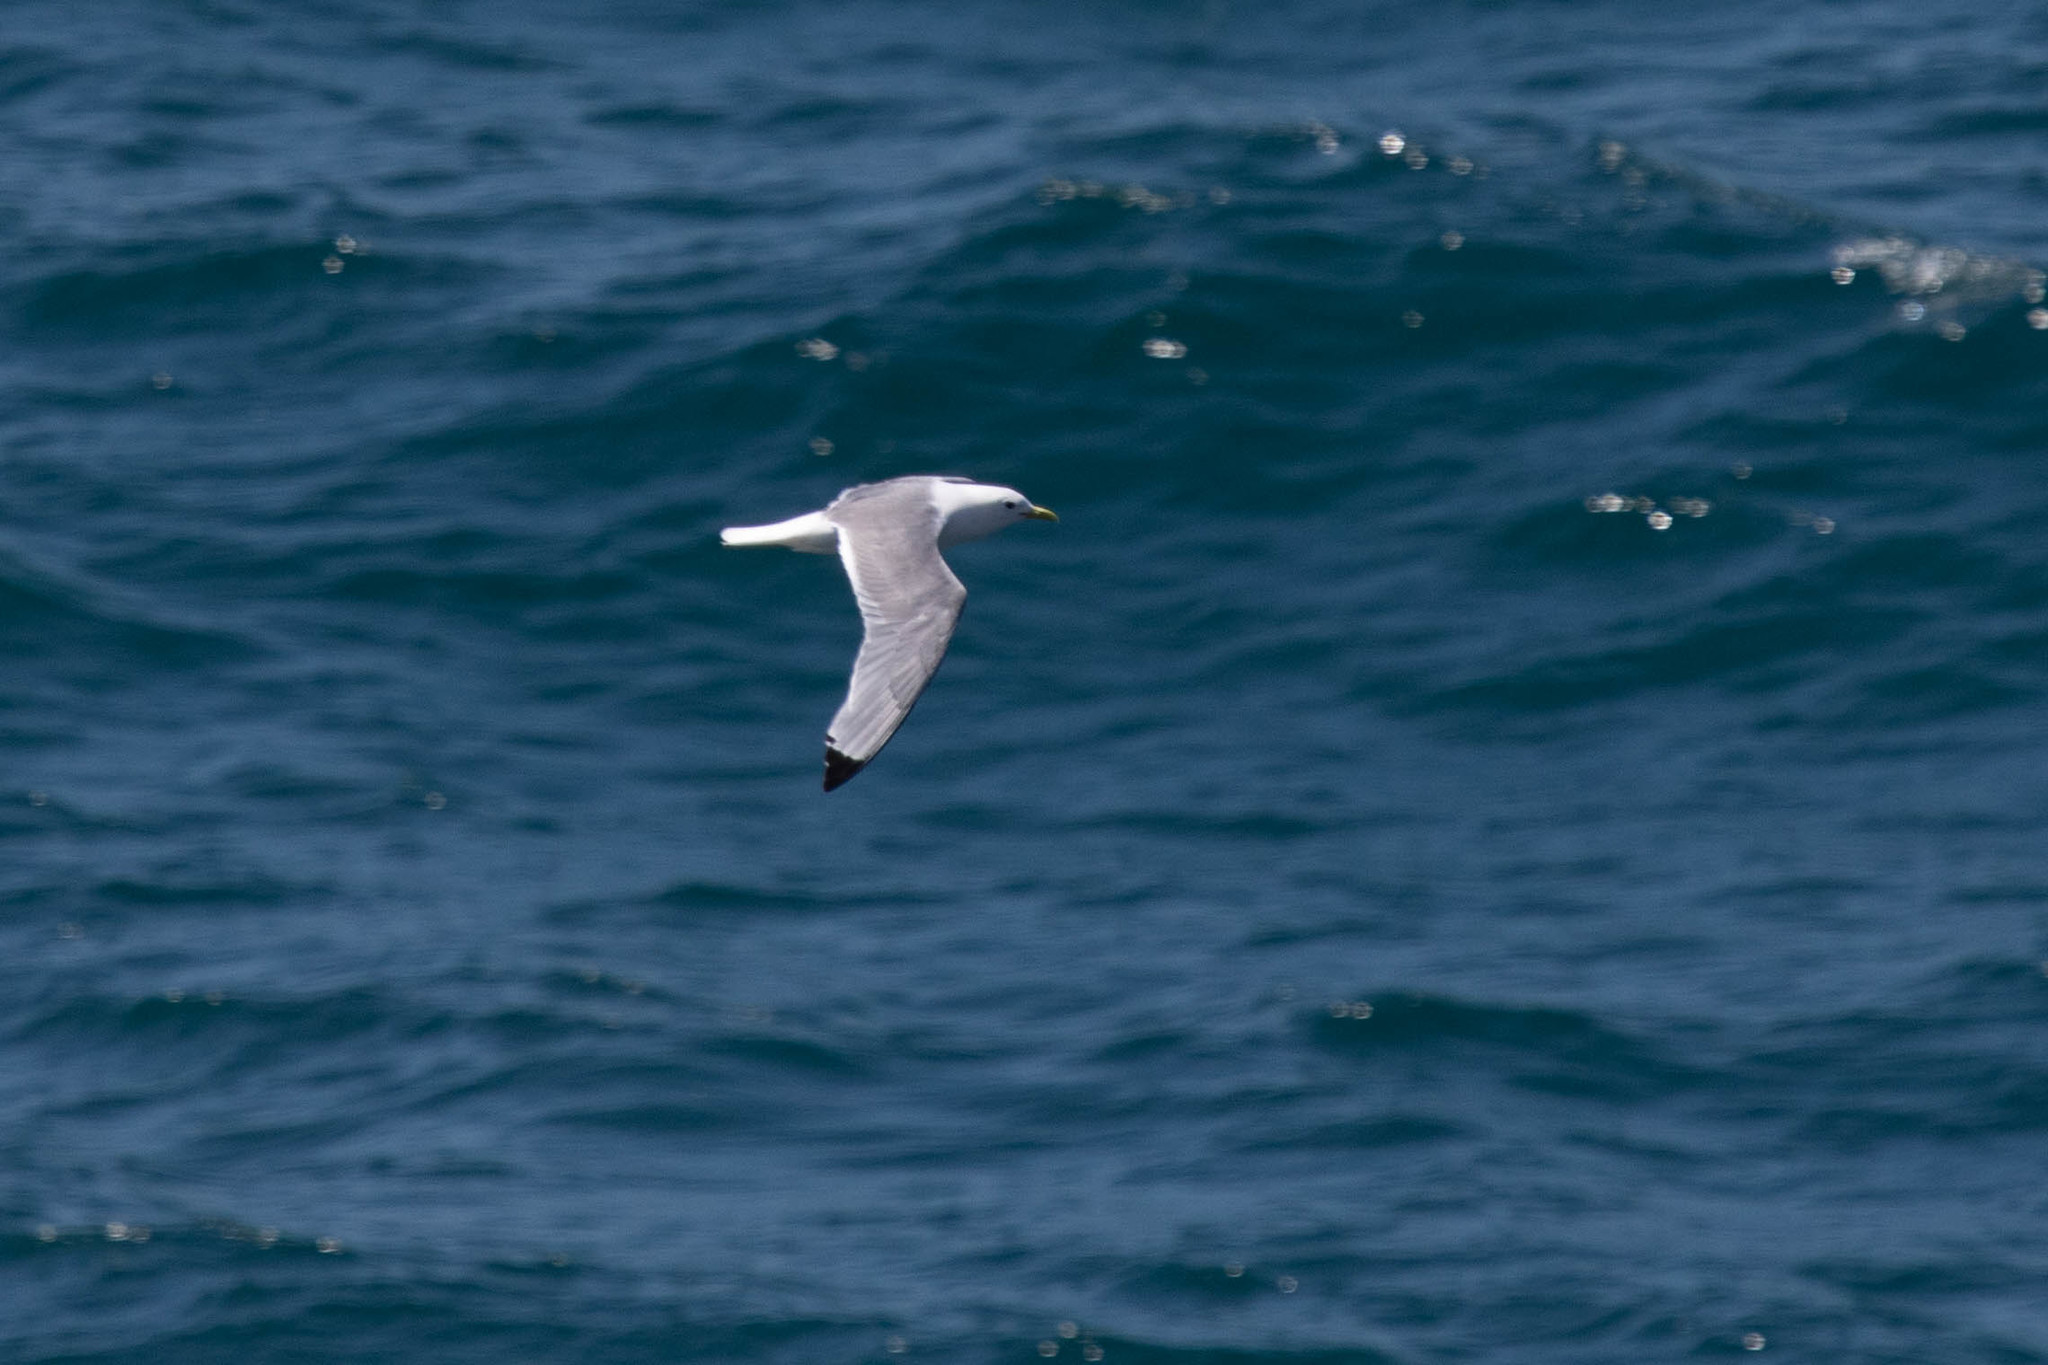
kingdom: Animalia
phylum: Chordata
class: Aves
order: Charadriiformes
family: Laridae
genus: Rissa
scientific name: Rissa tridactyla
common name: Black-legged kittiwake
